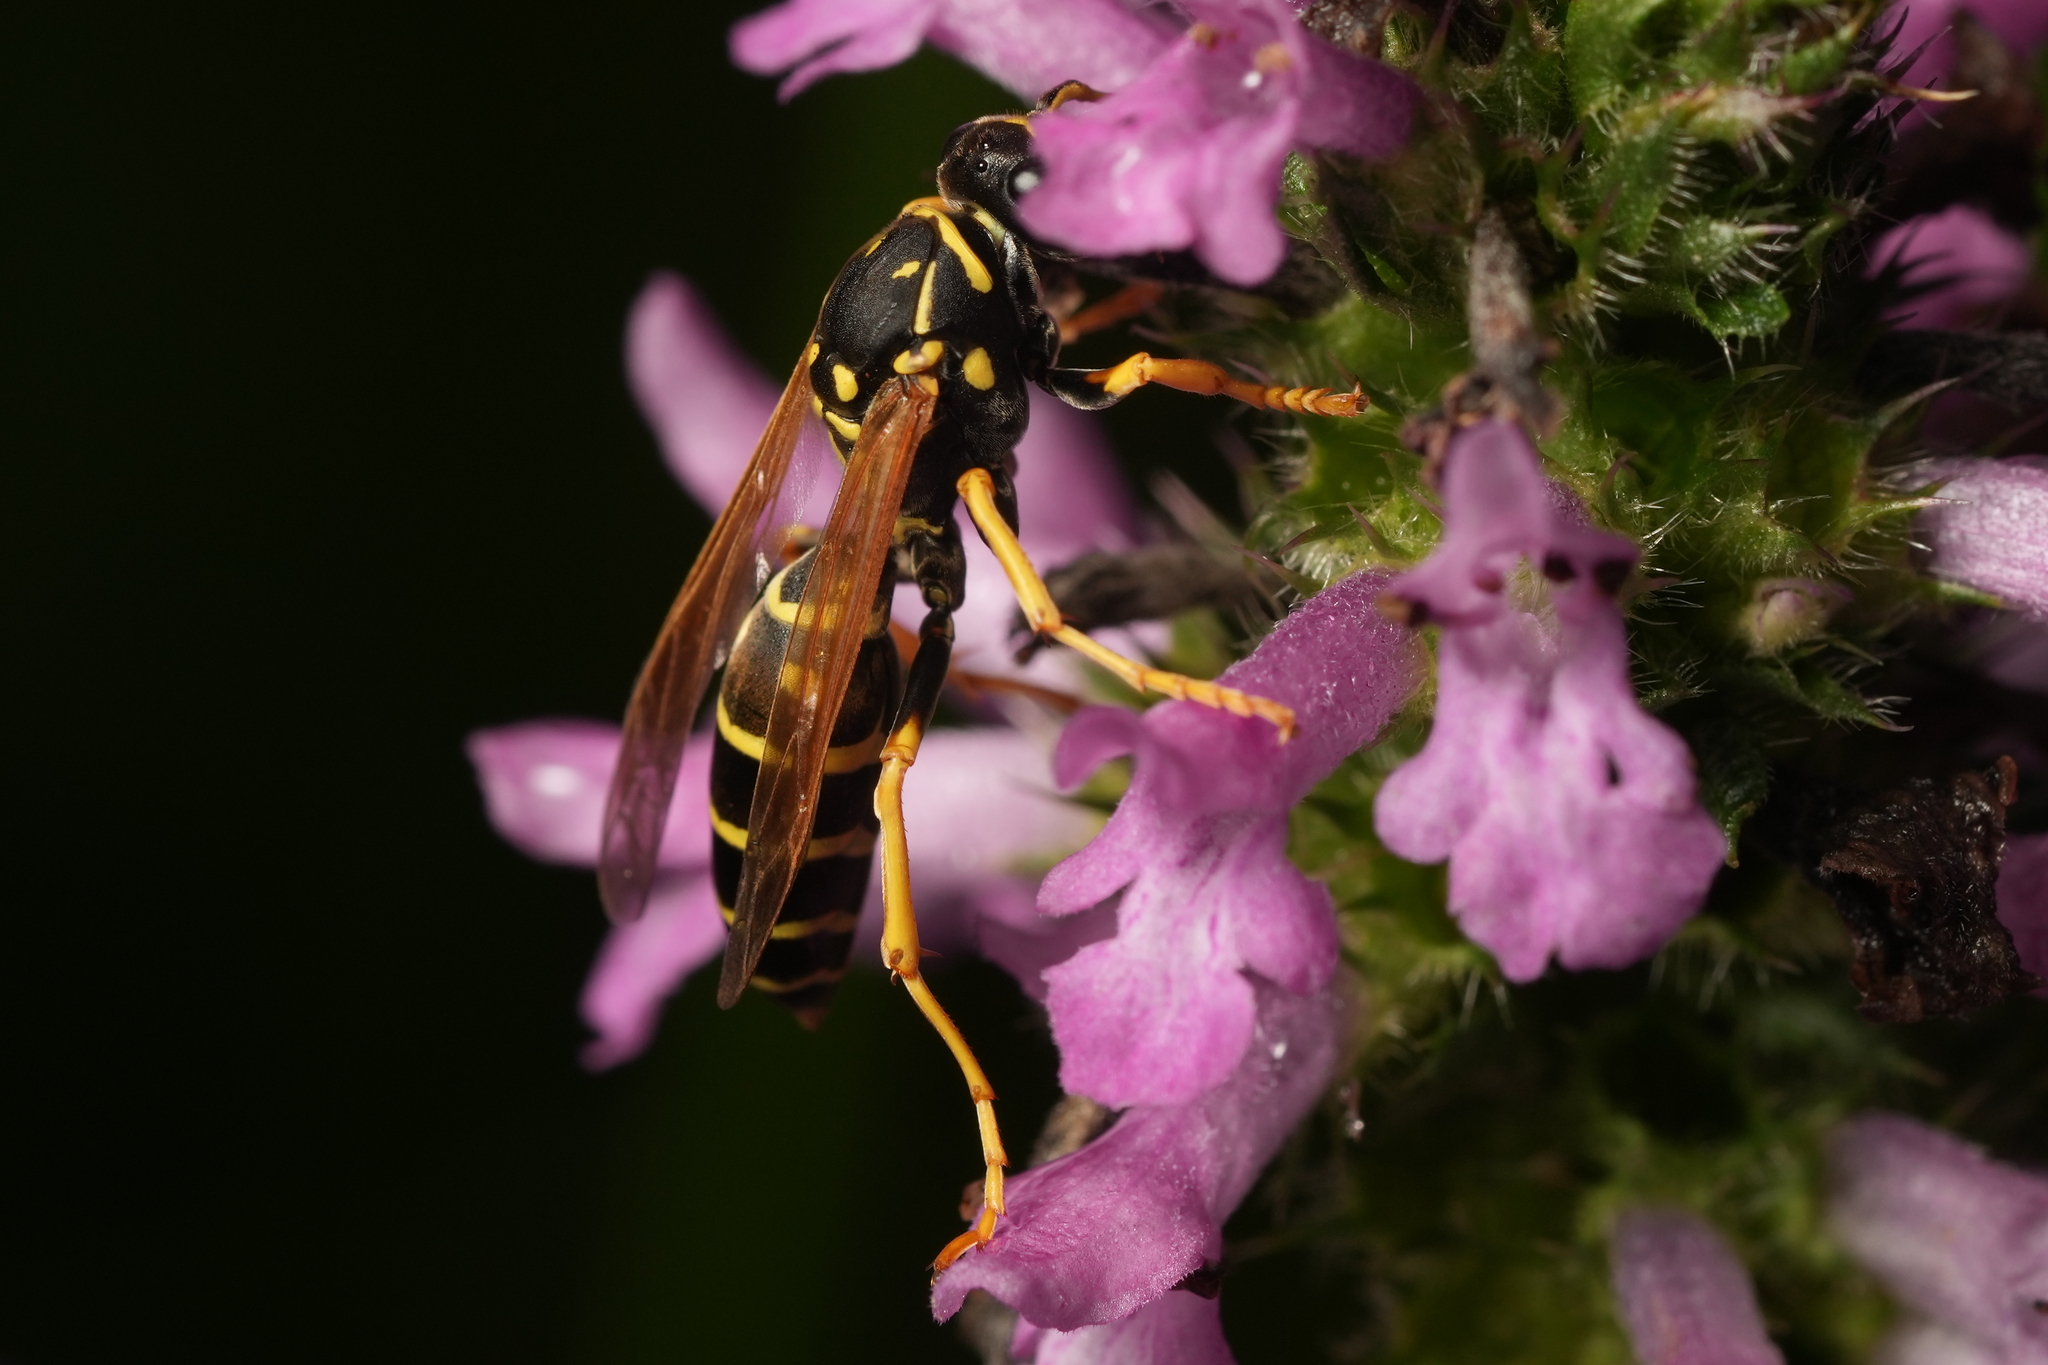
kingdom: Animalia
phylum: Arthropoda
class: Insecta
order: Hymenoptera
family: Eumenidae
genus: Polistes
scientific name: Polistes dominula
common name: Paper wasp
